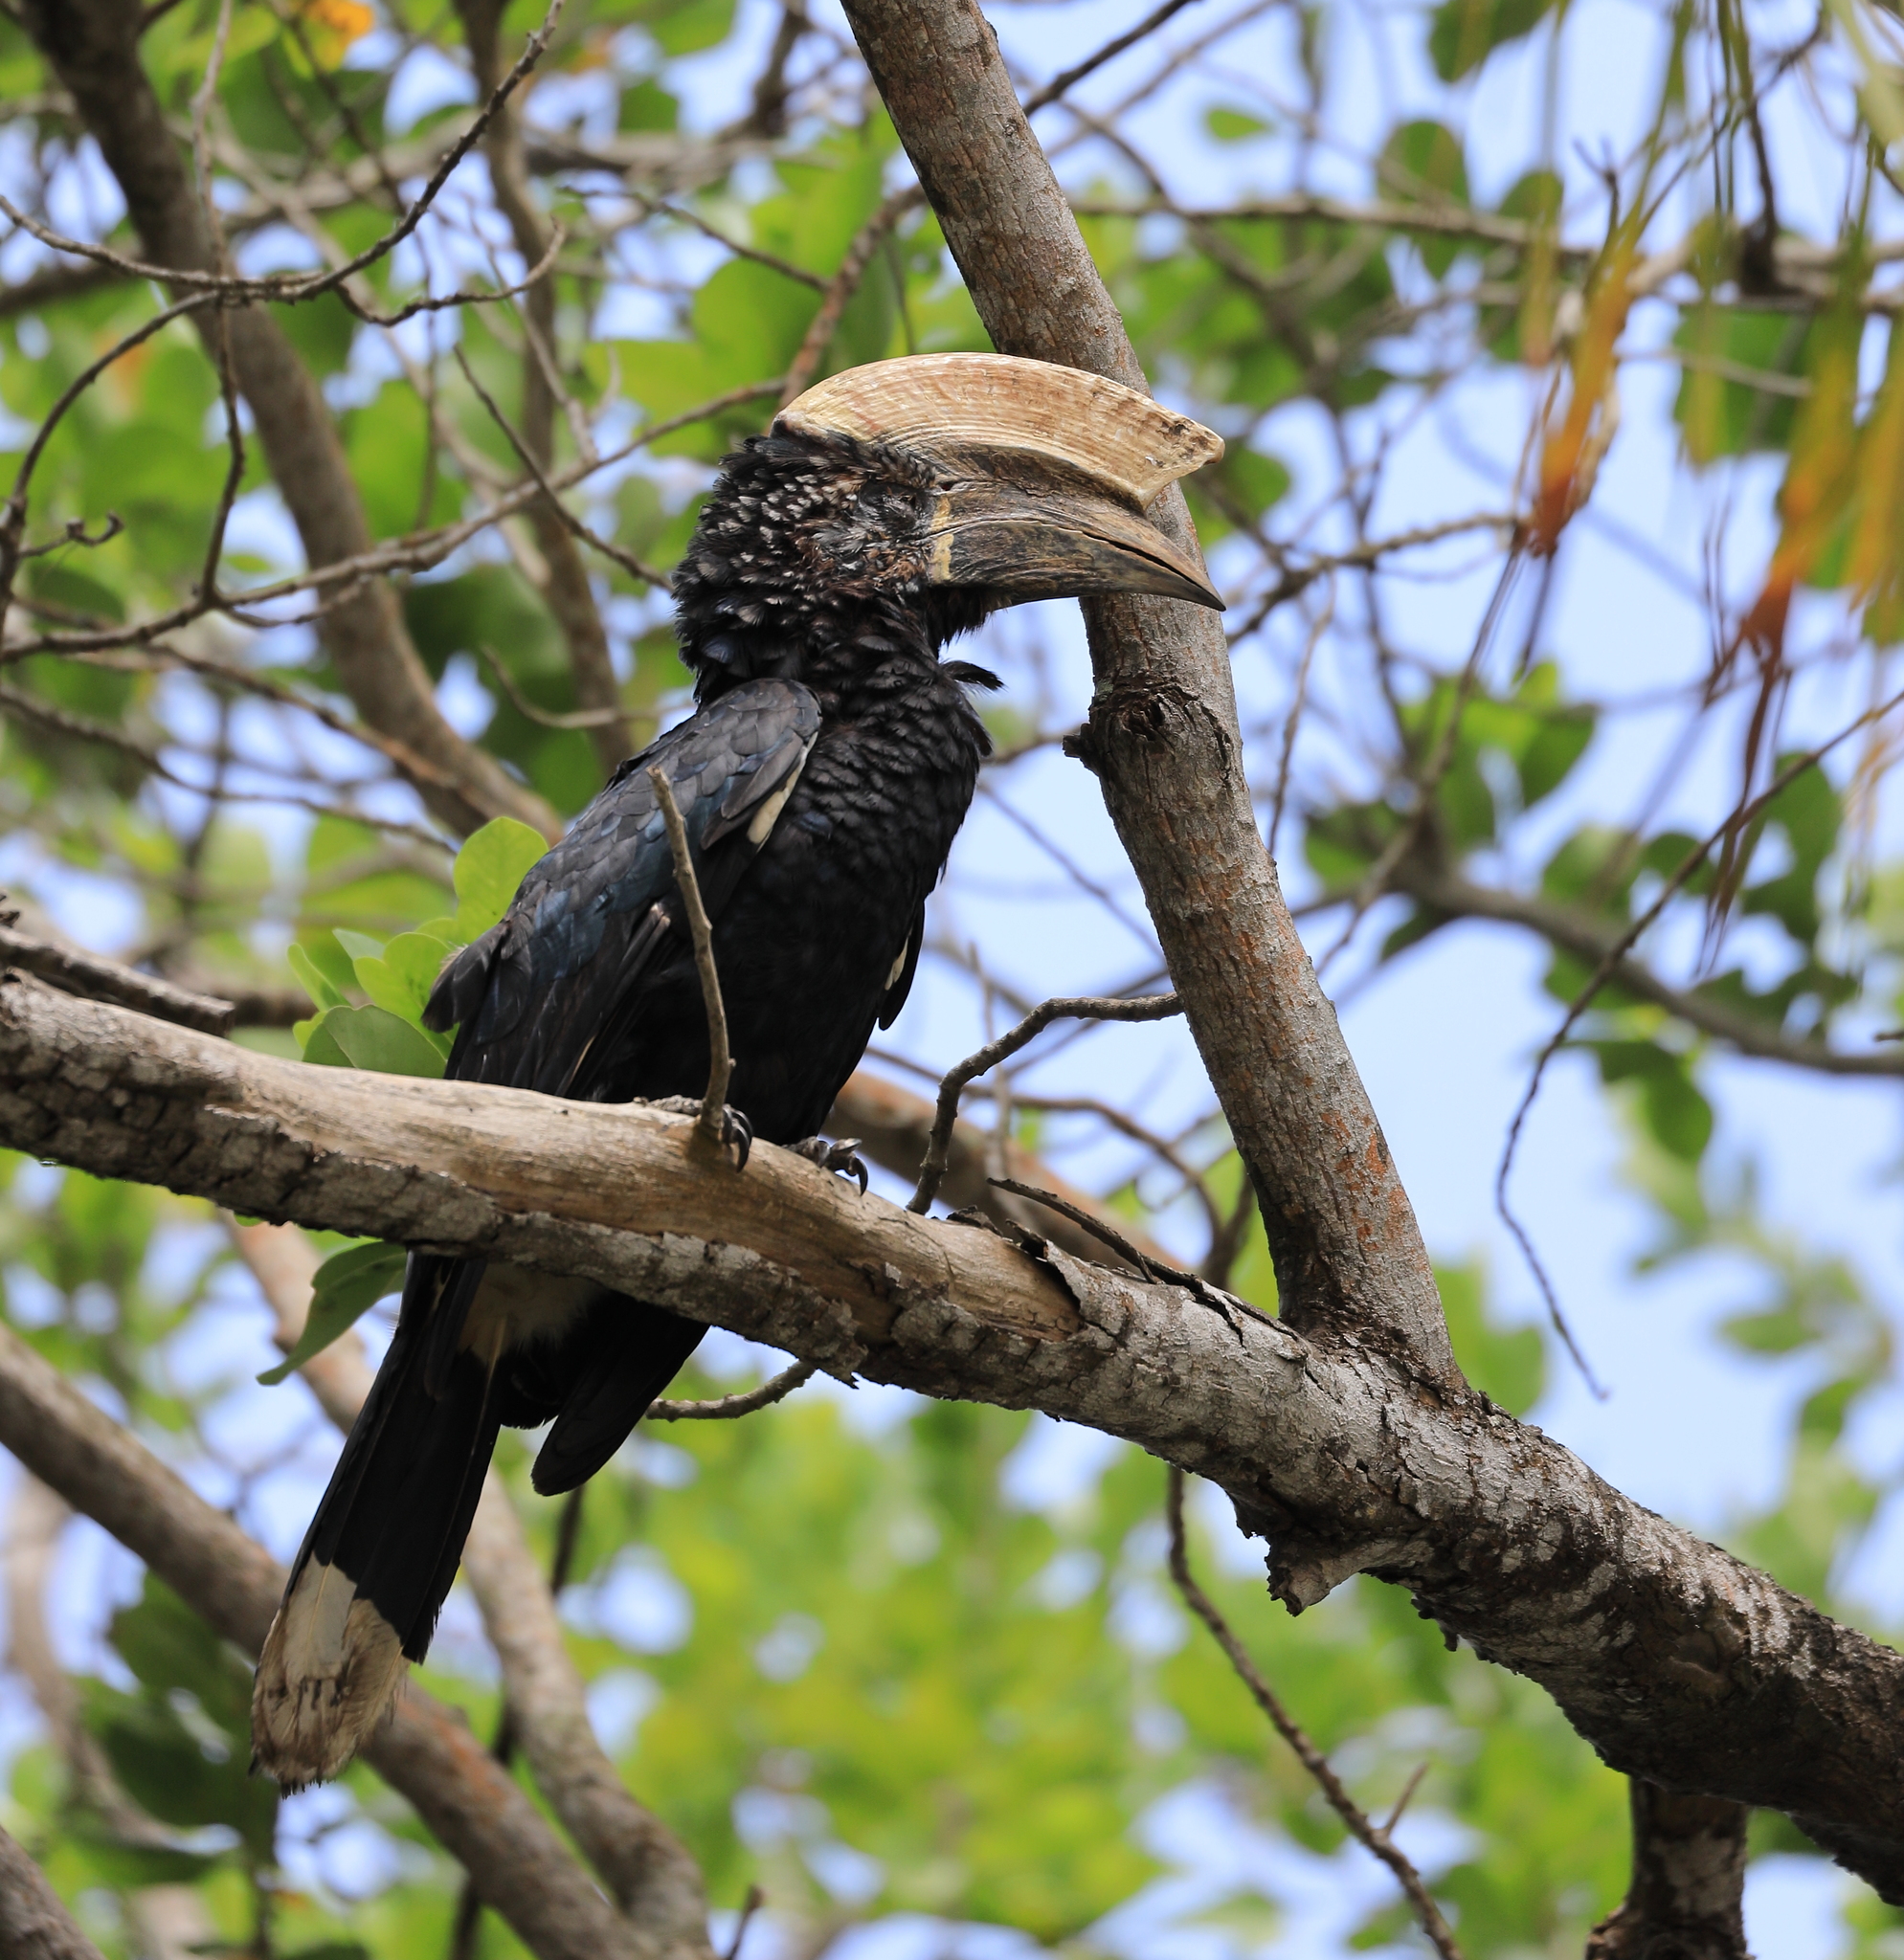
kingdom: Animalia
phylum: Chordata
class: Aves
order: Bucerotiformes
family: Bucerotidae
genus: Bycanistes
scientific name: Bycanistes brevis
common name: Silvery-cheeked hornbill
